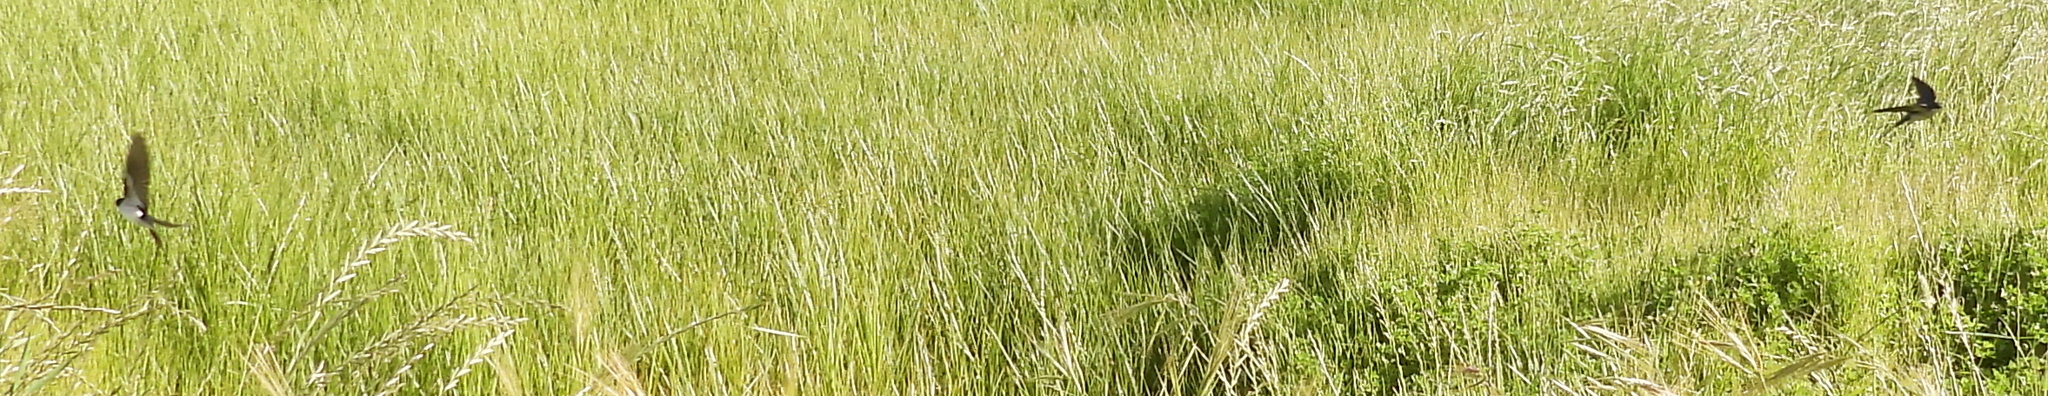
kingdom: Animalia
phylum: Chordata
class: Aves
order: Passeriformes
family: Hirundinidae
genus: Hirundo
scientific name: Hirundo dimidiata
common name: Pearl-breasted swallow
